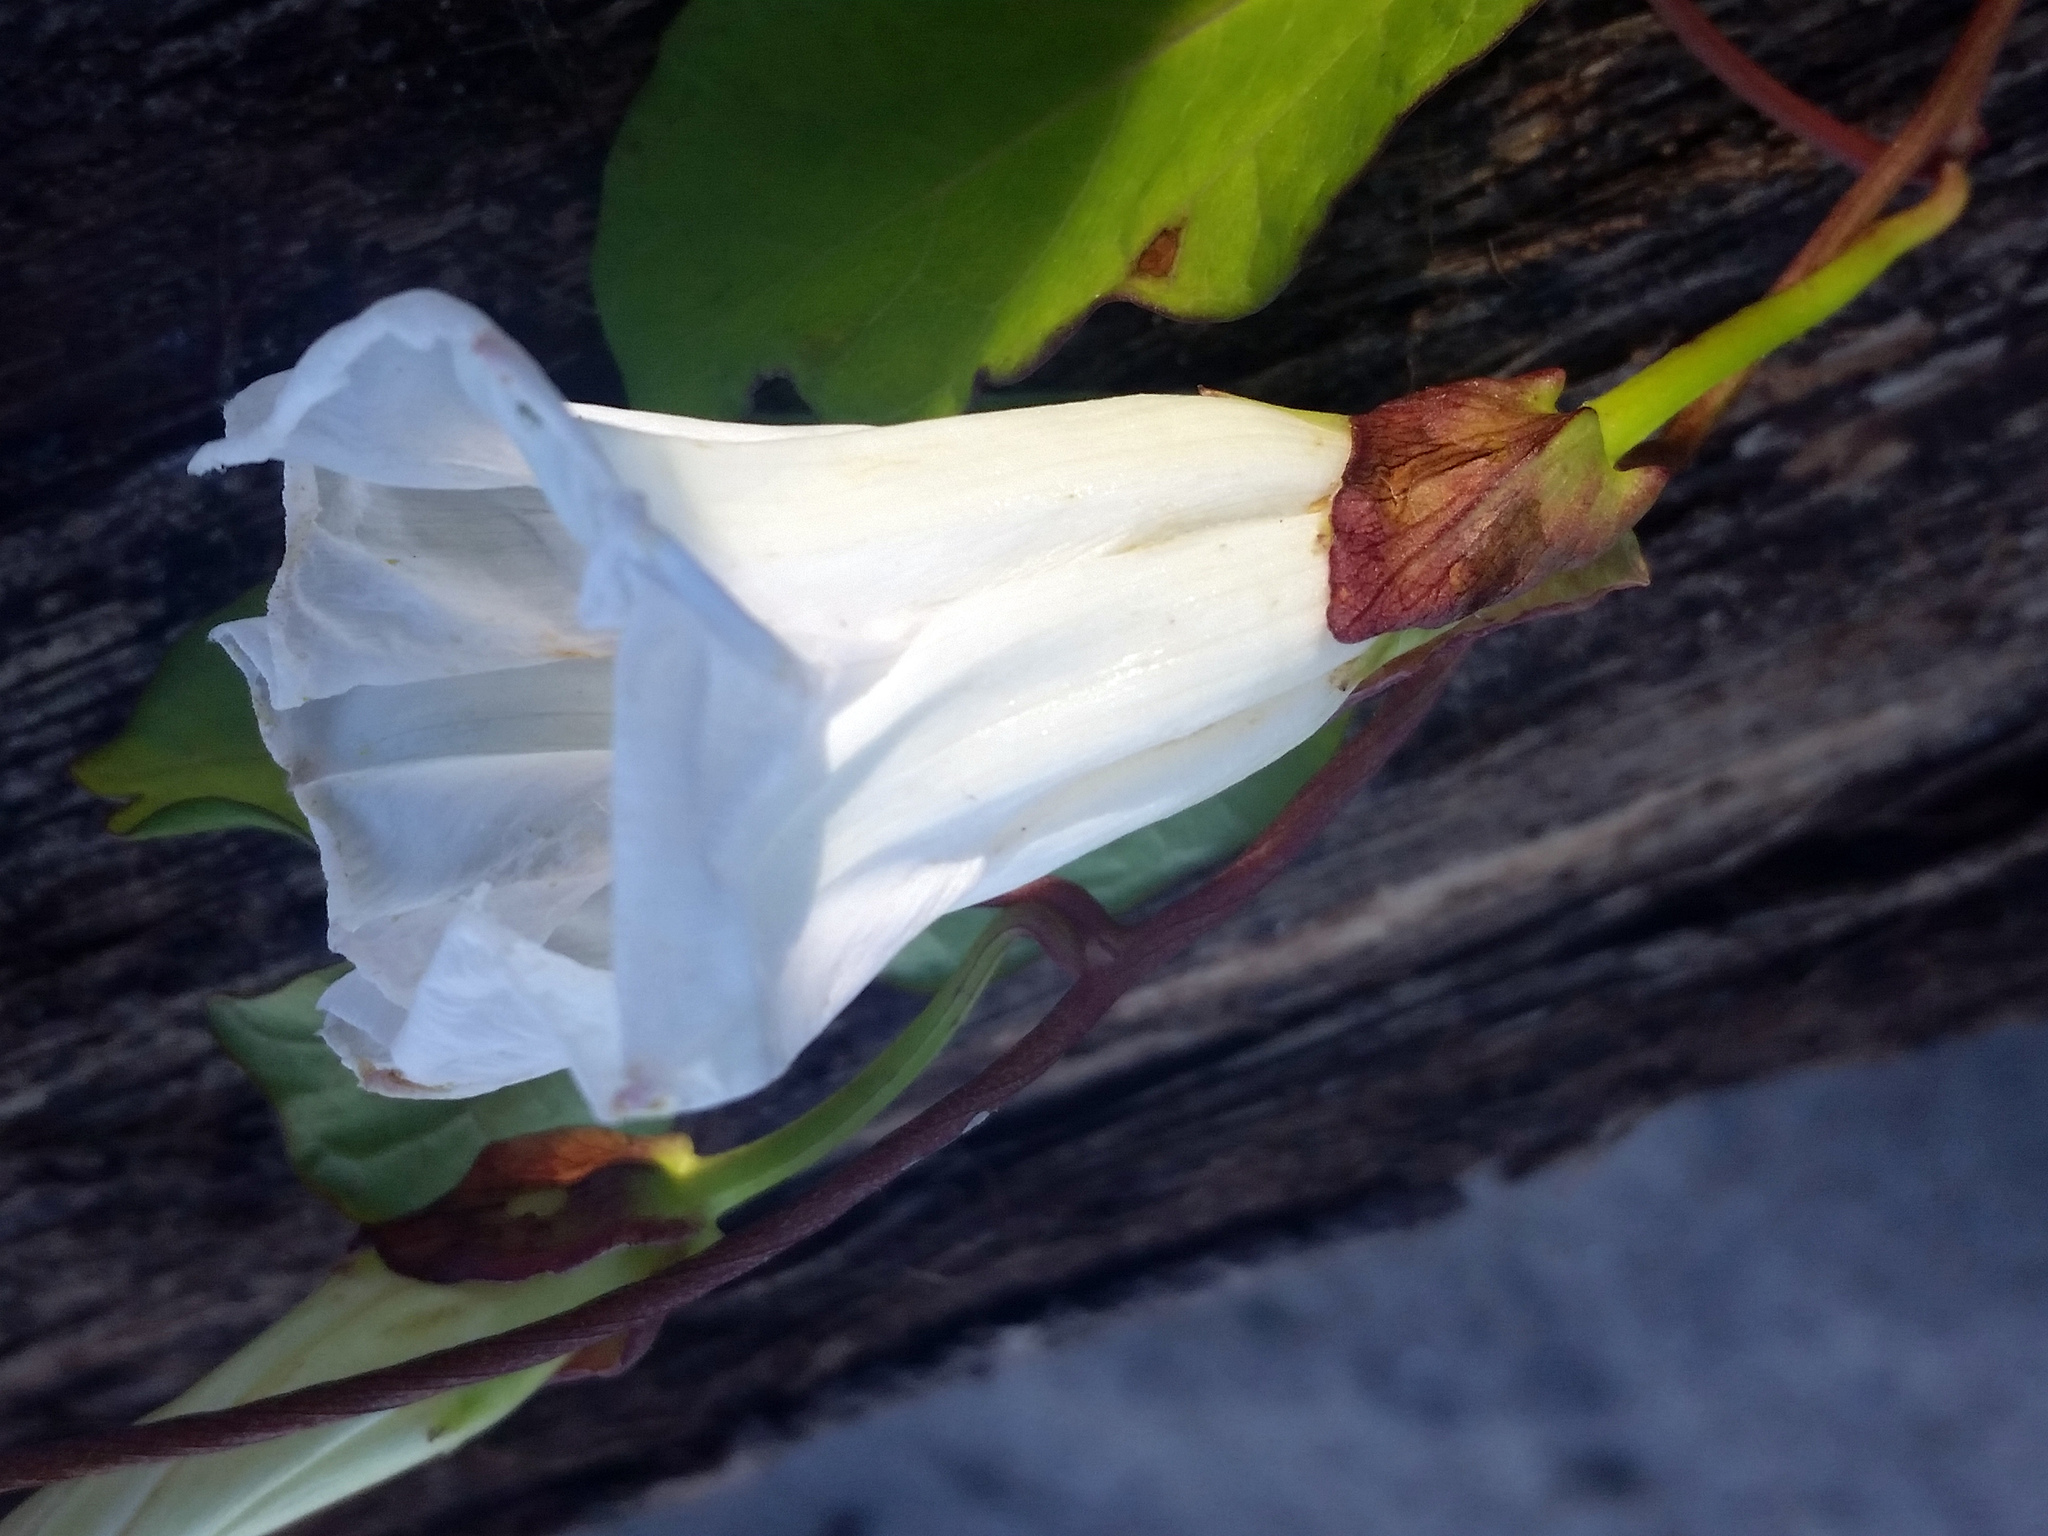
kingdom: Plantae
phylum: Tracheophyta
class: Magnoliopsida
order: Solanales
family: Convolvulaceae
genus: Calystegia
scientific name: Calystegia sepium
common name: Hedge bindweed
